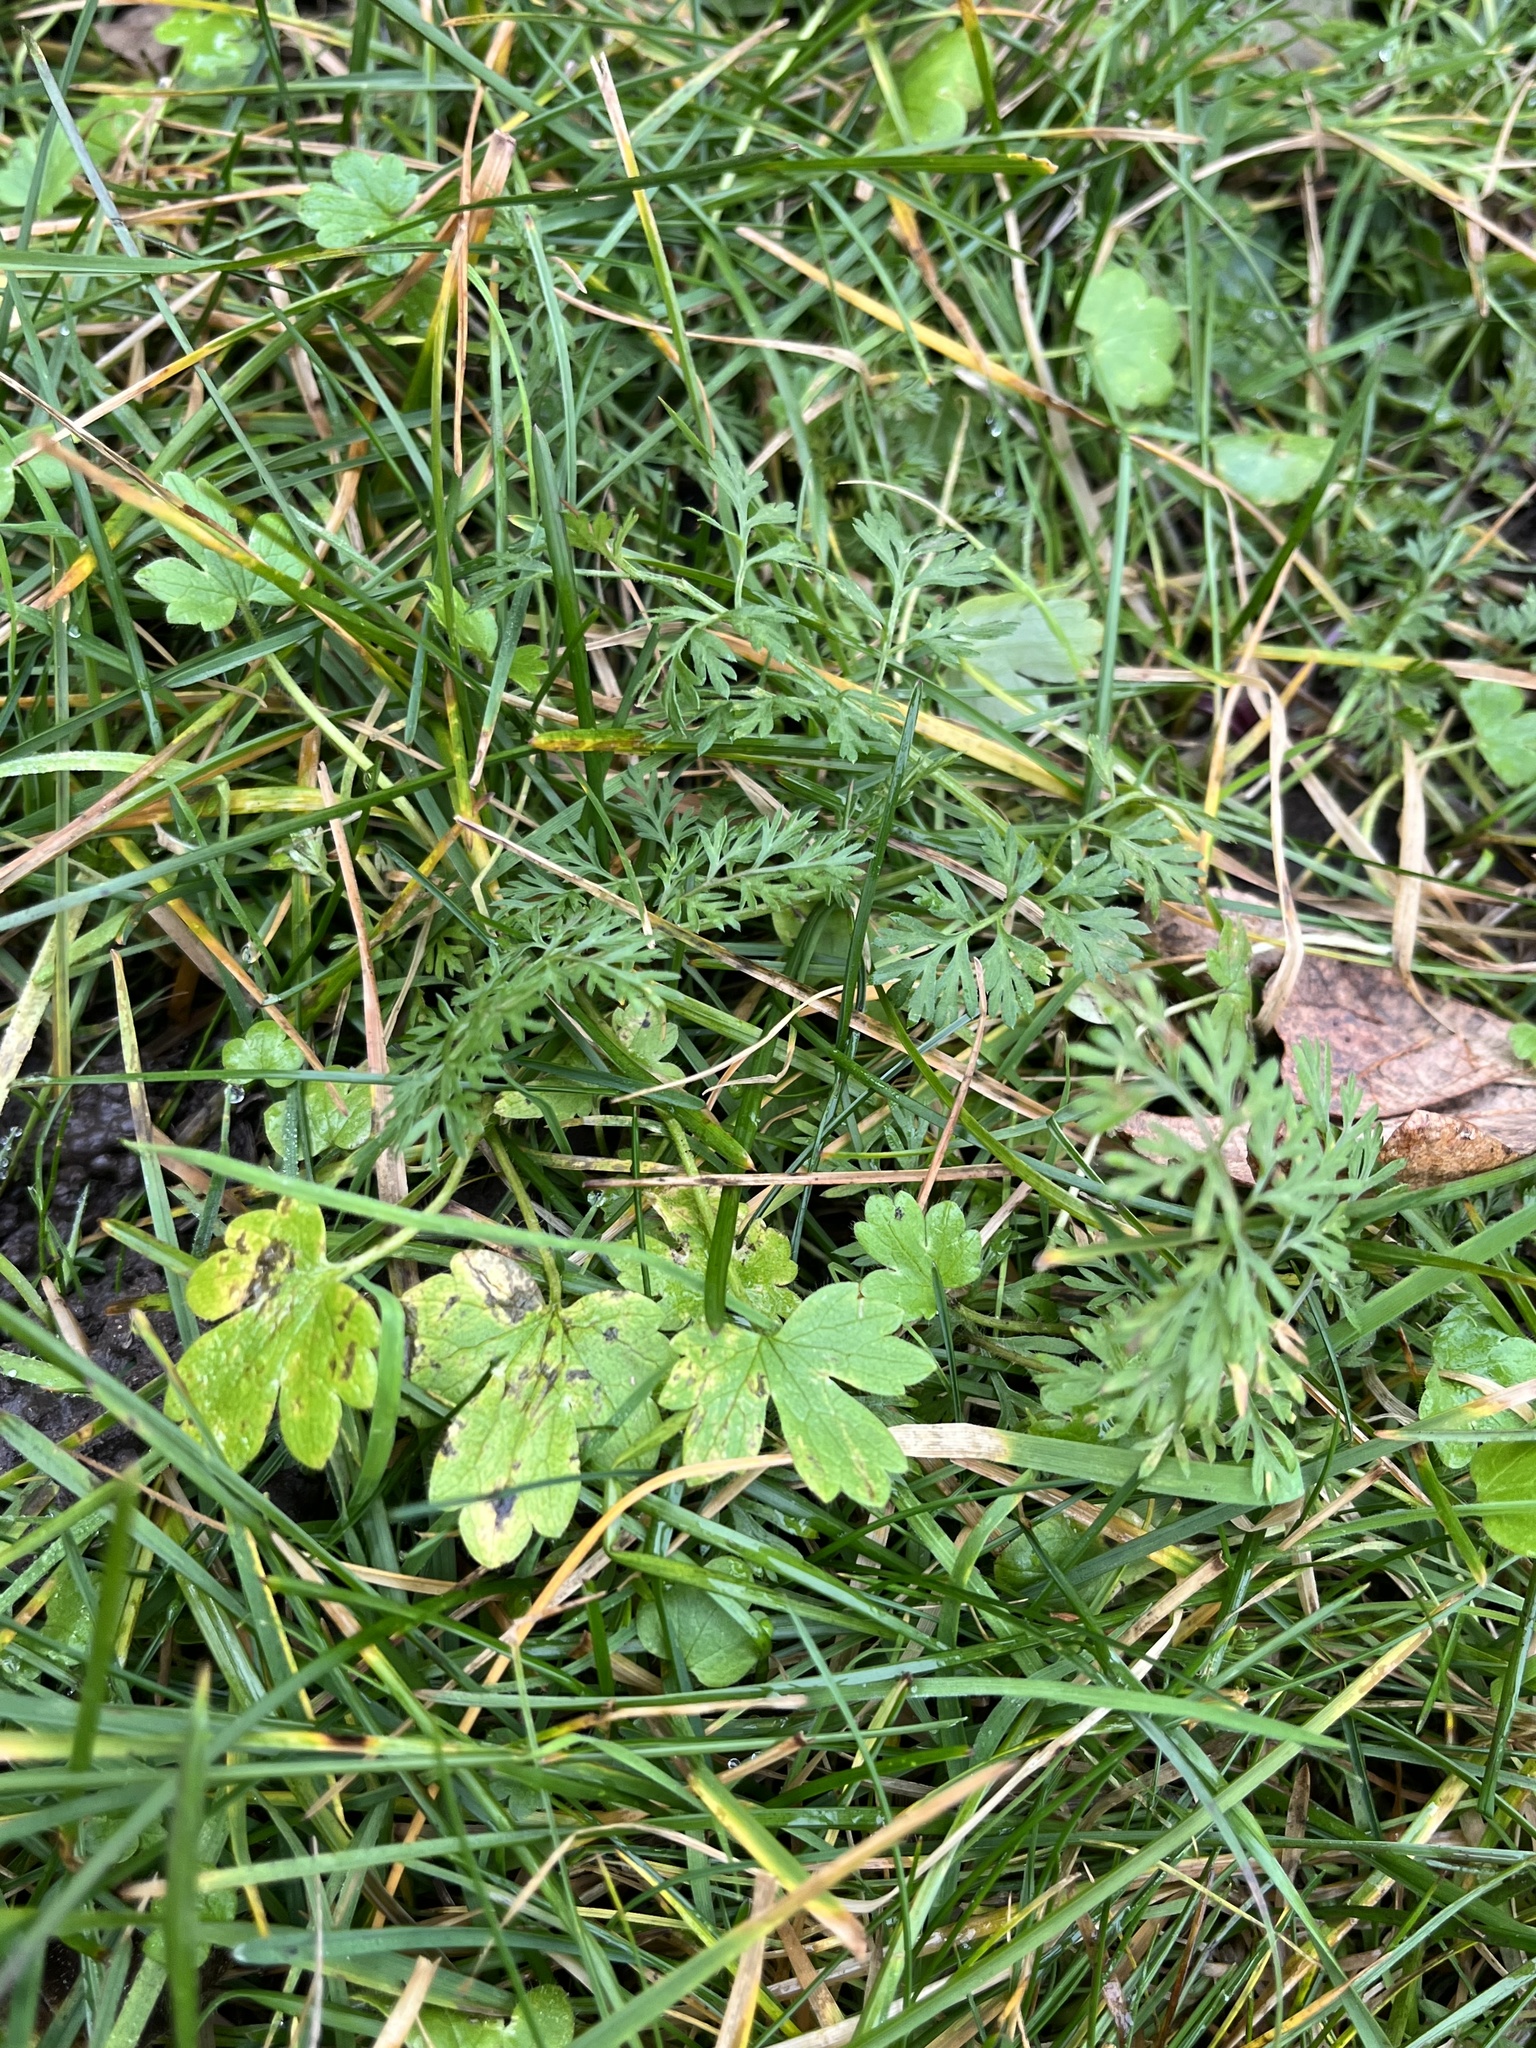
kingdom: Plantae
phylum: Tracheophyta
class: Magnoliopsida
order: Apiales
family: Apiaceae
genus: Daucus
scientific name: Daucus carota
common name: Wild carrot
